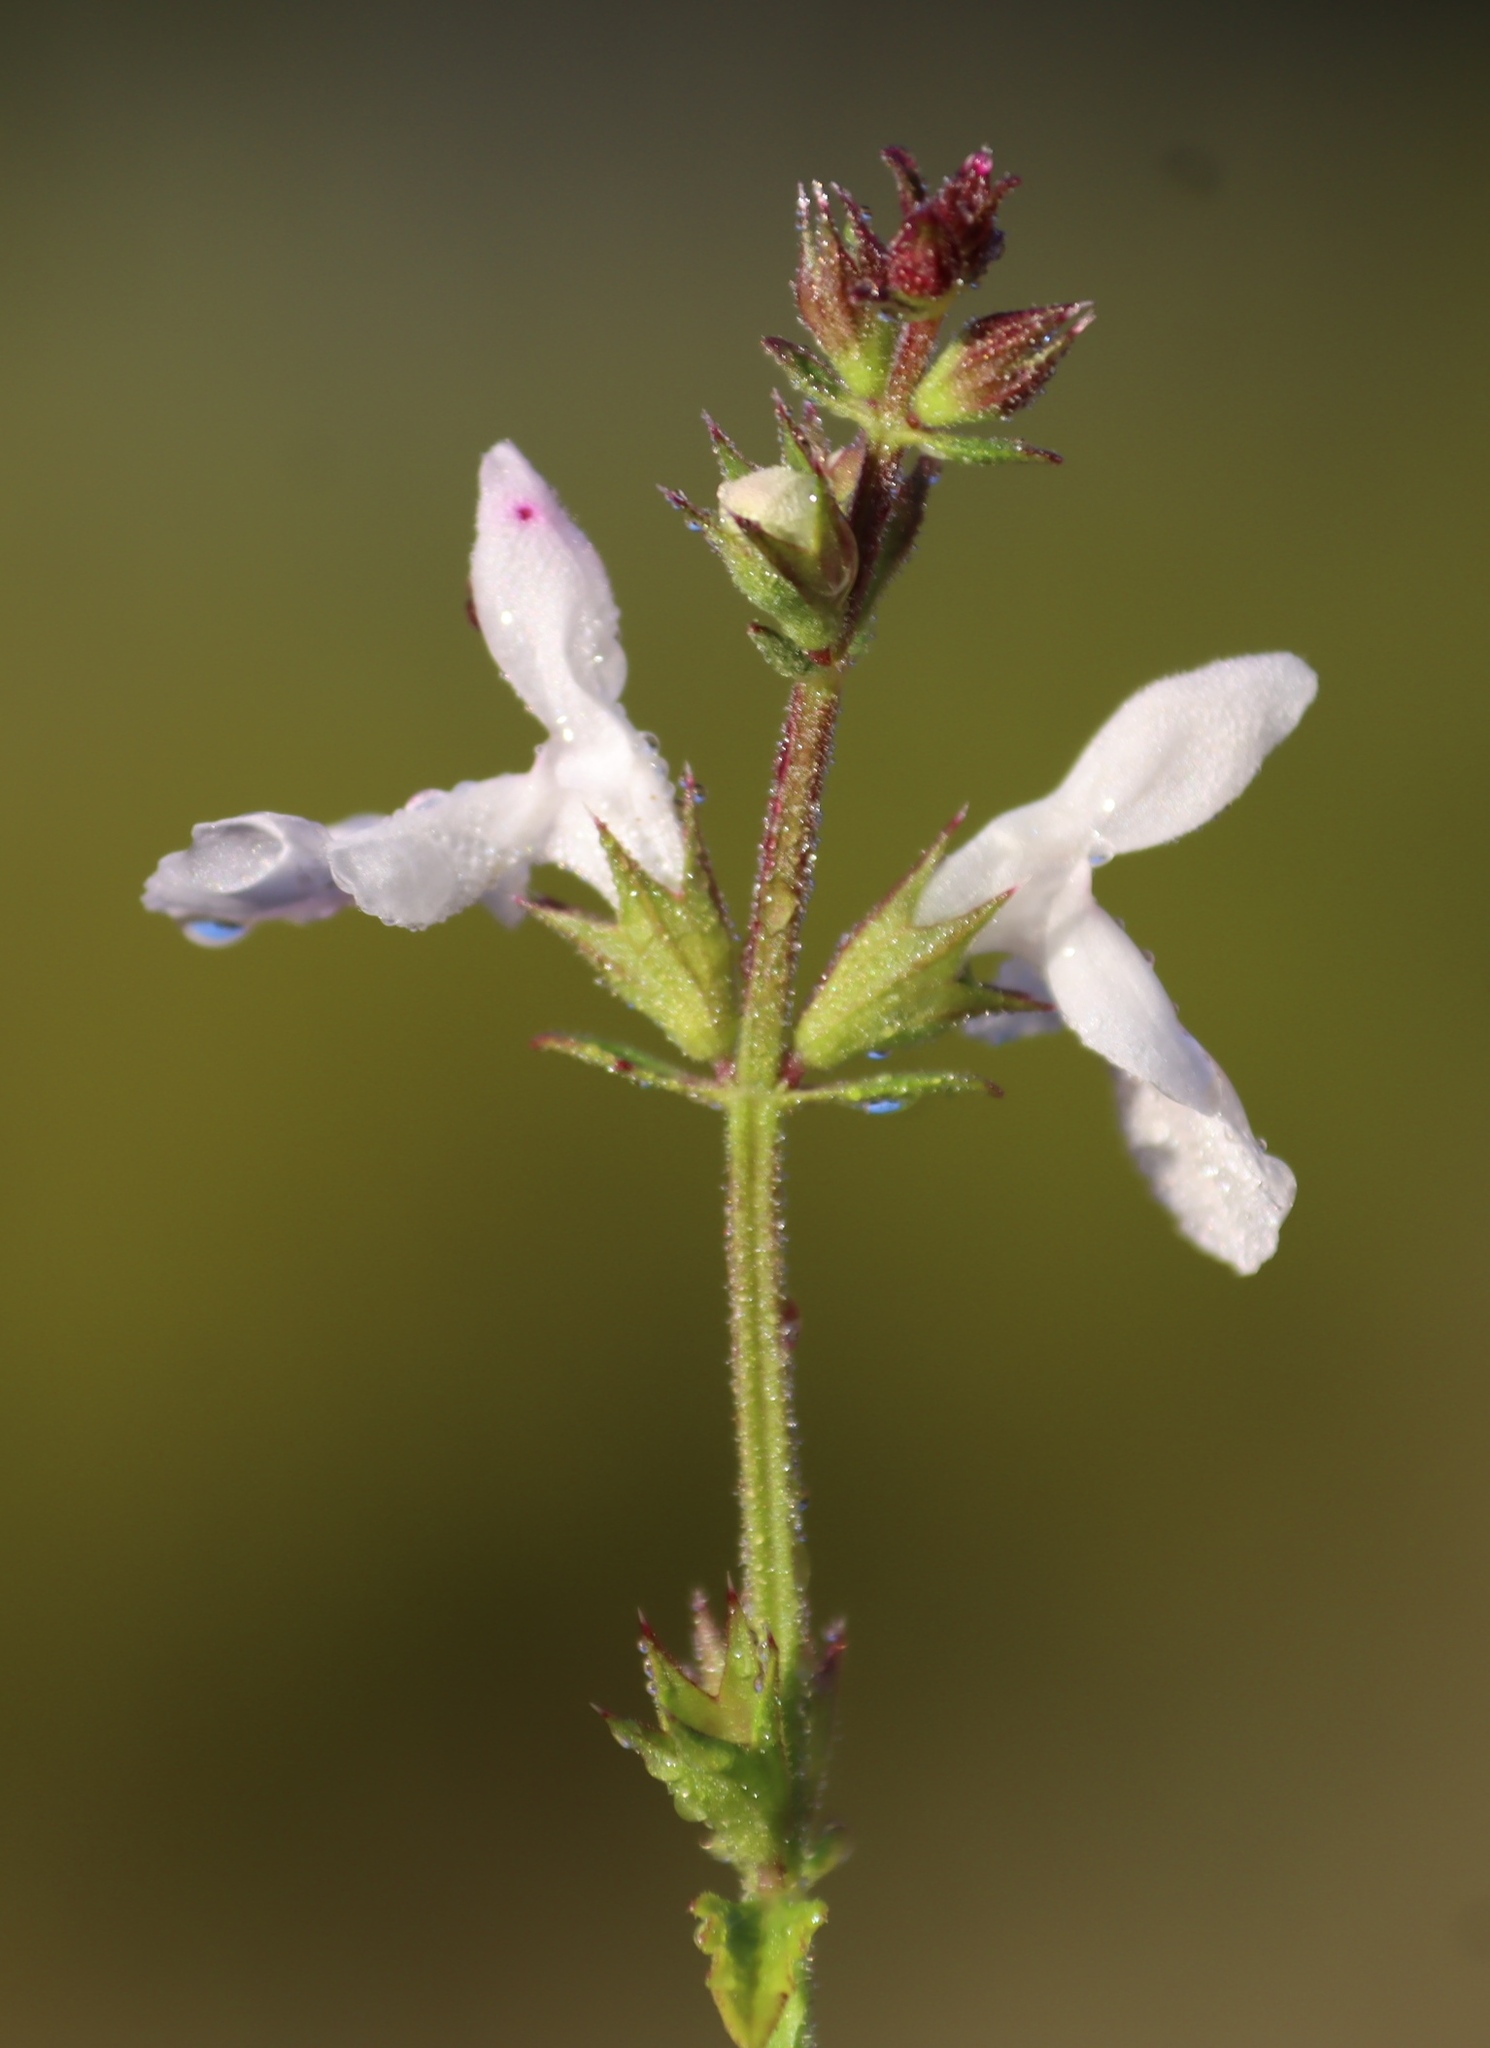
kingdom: Plantae
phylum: Tracheophyta
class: Magnoliopsida
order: Lamiales
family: Lamiaceae
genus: Stachys
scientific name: Stachys aethiopica
